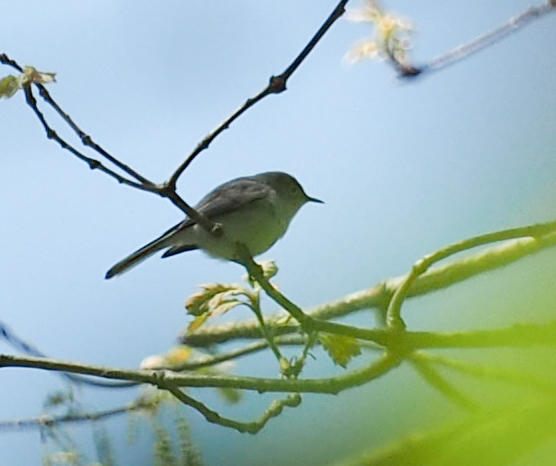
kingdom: Animalia
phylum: Chordata
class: Aves
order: Passeriformes
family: Polioptilidae
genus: Polioptila
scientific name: Polioptila caerulea
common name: Blue-gray gnatcatcher
